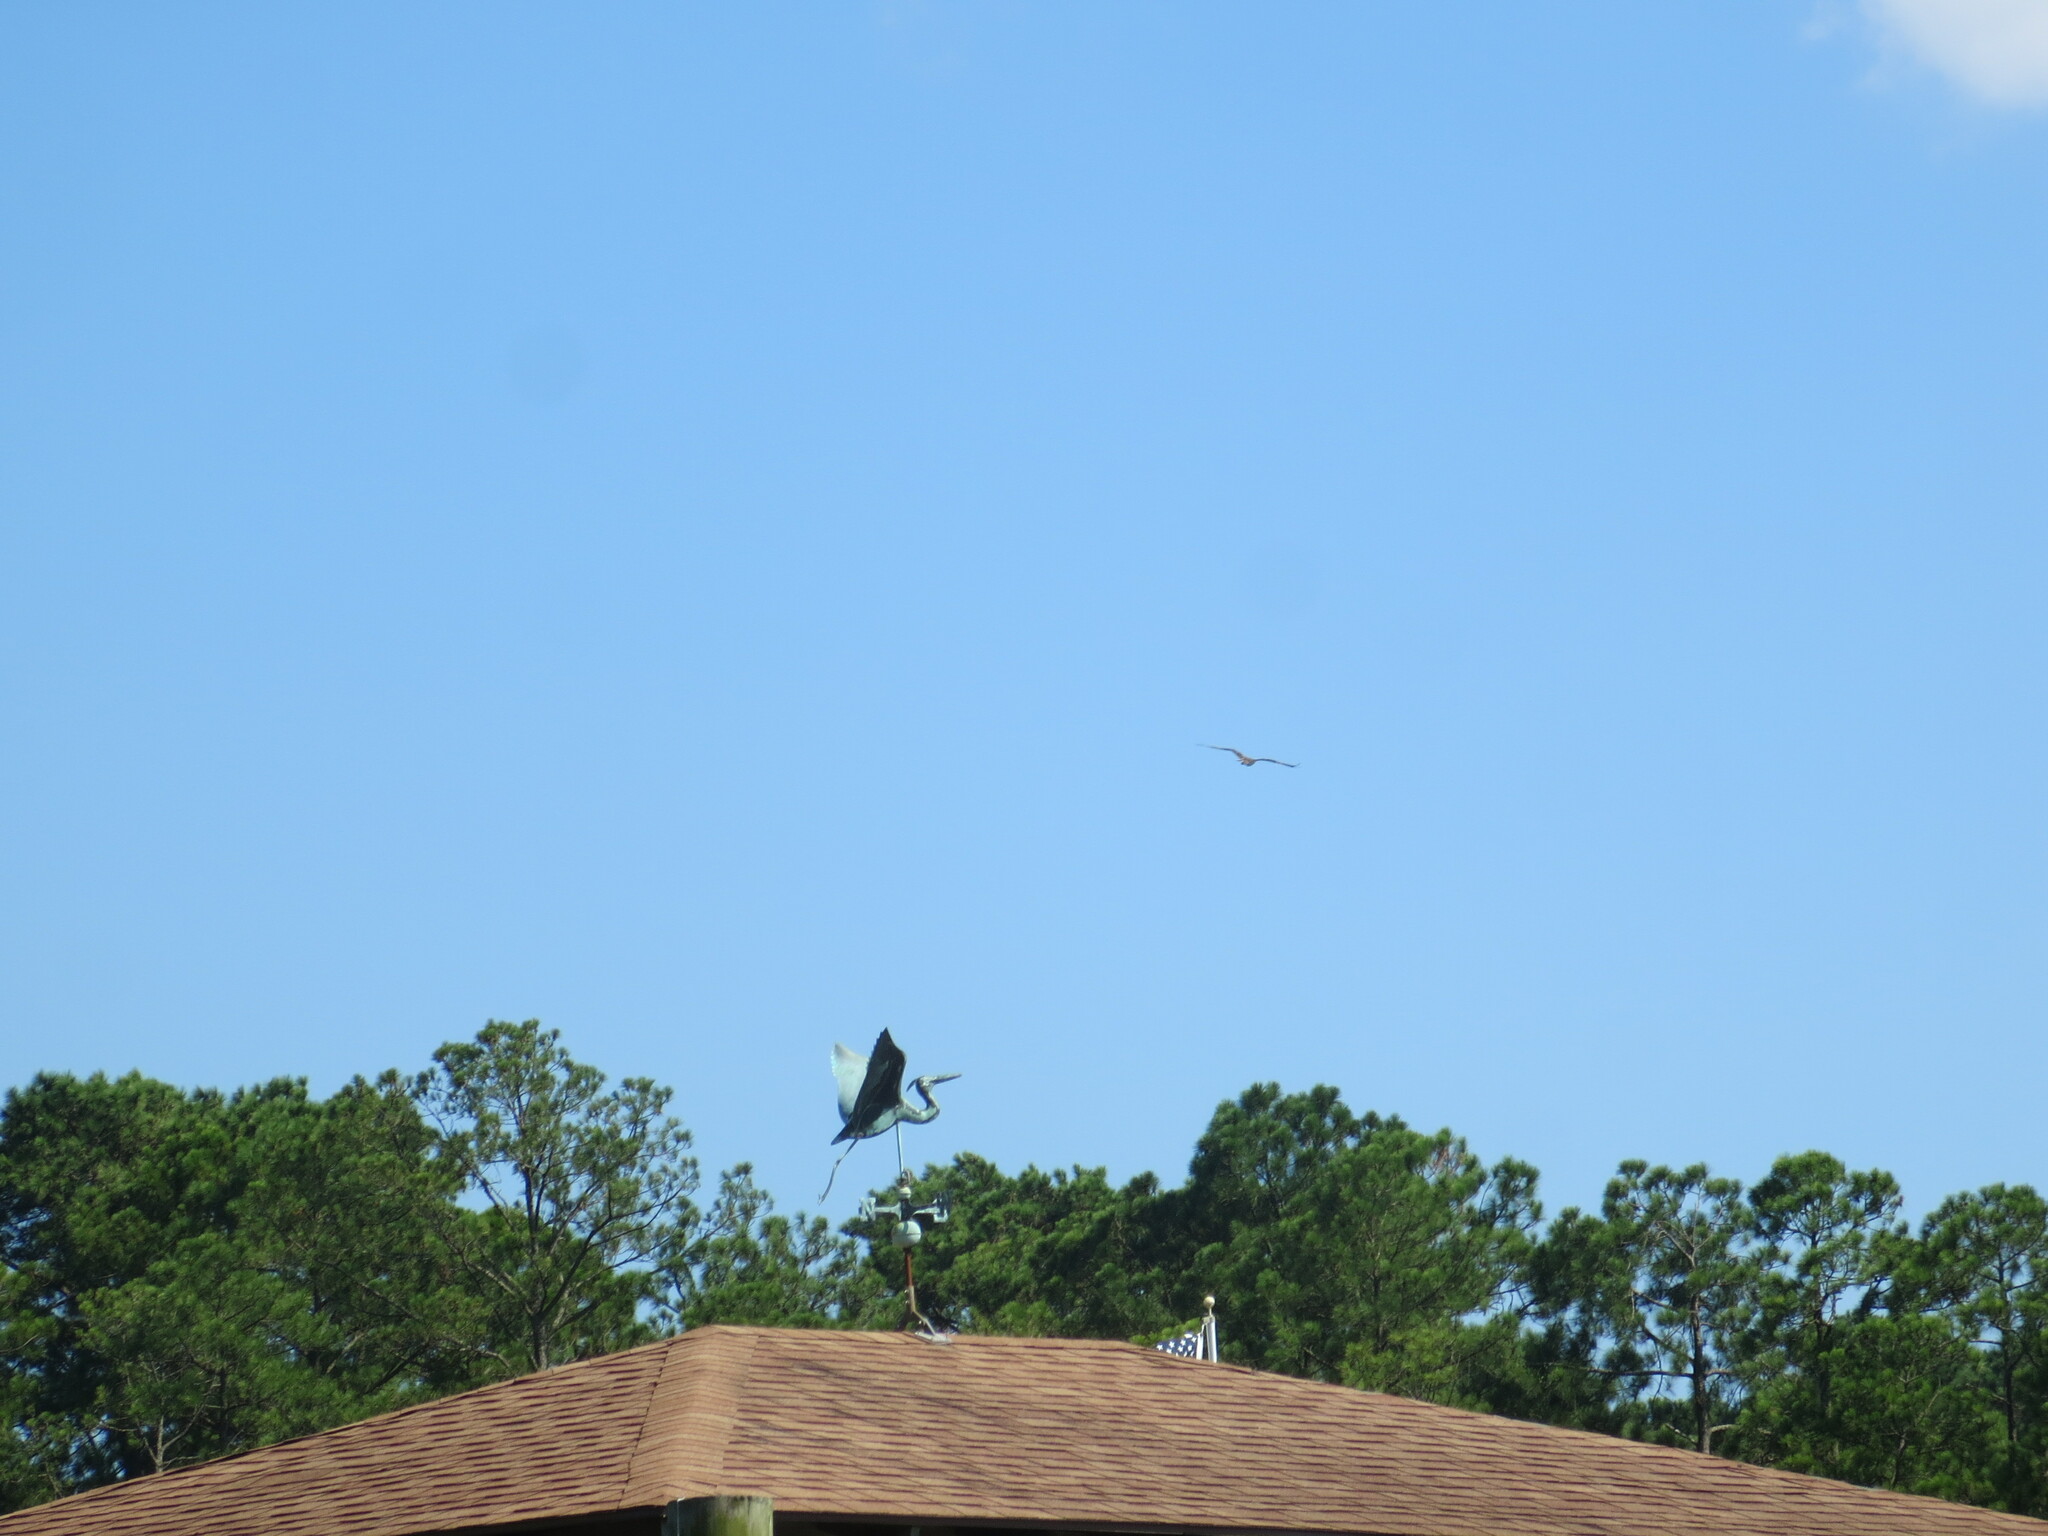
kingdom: Animalia
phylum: Chordata
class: Aves
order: Accipitriformes
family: Pandionidae
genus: Pandion
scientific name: Pandion haliaetus
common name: Osprey
